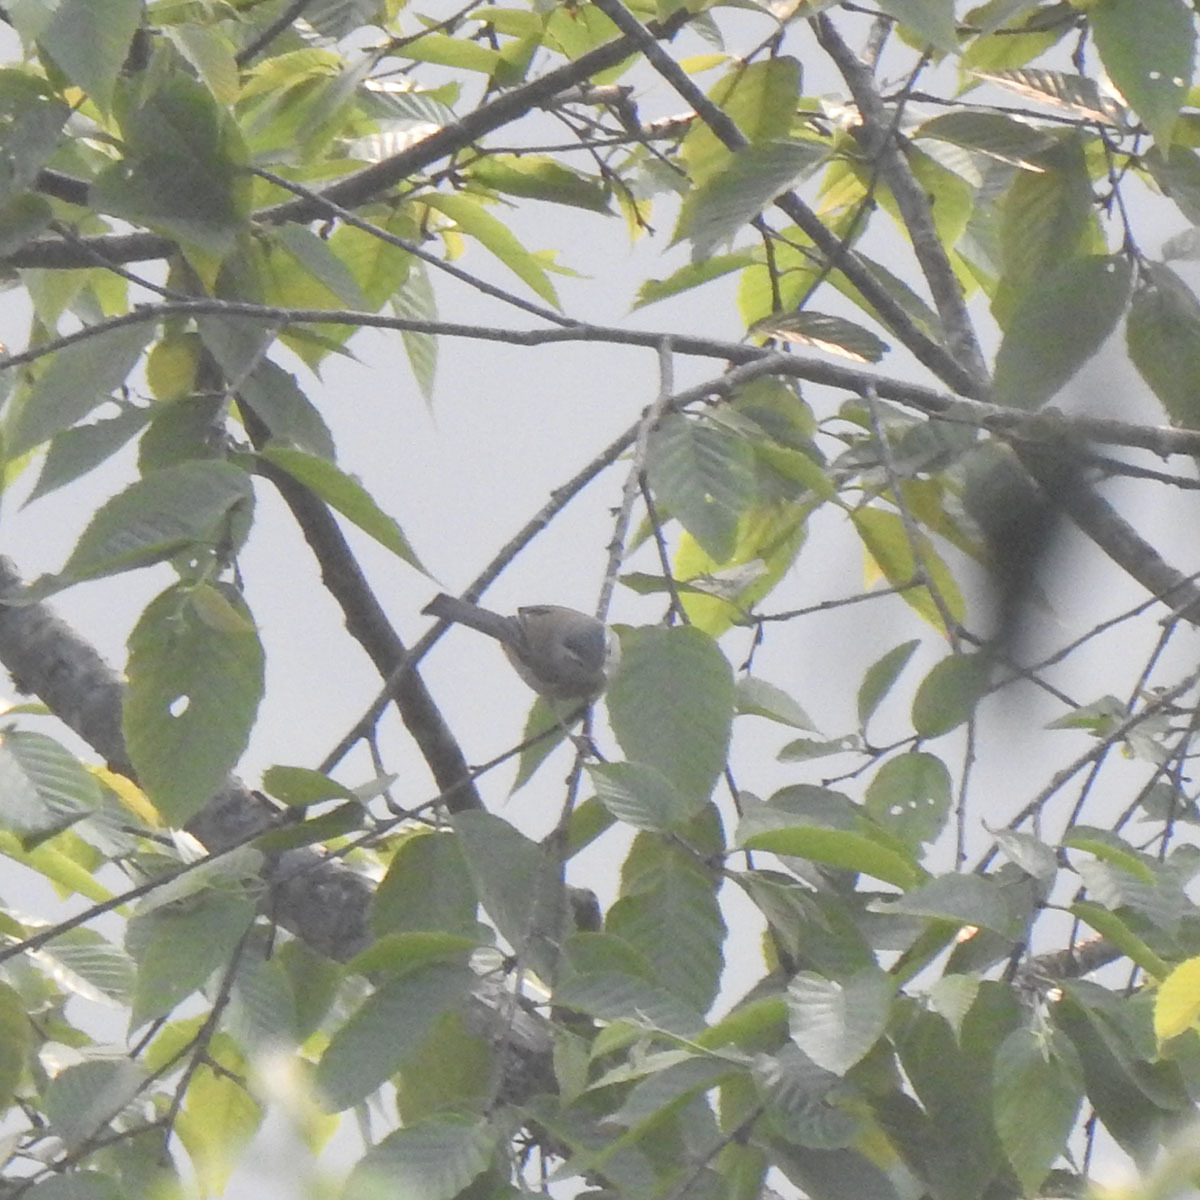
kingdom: Animalia
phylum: Chordata
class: Aves
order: Passeriformes
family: Leiothrichidae
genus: Minla
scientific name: Minla cyanouroptera
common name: Blue-winged minla
